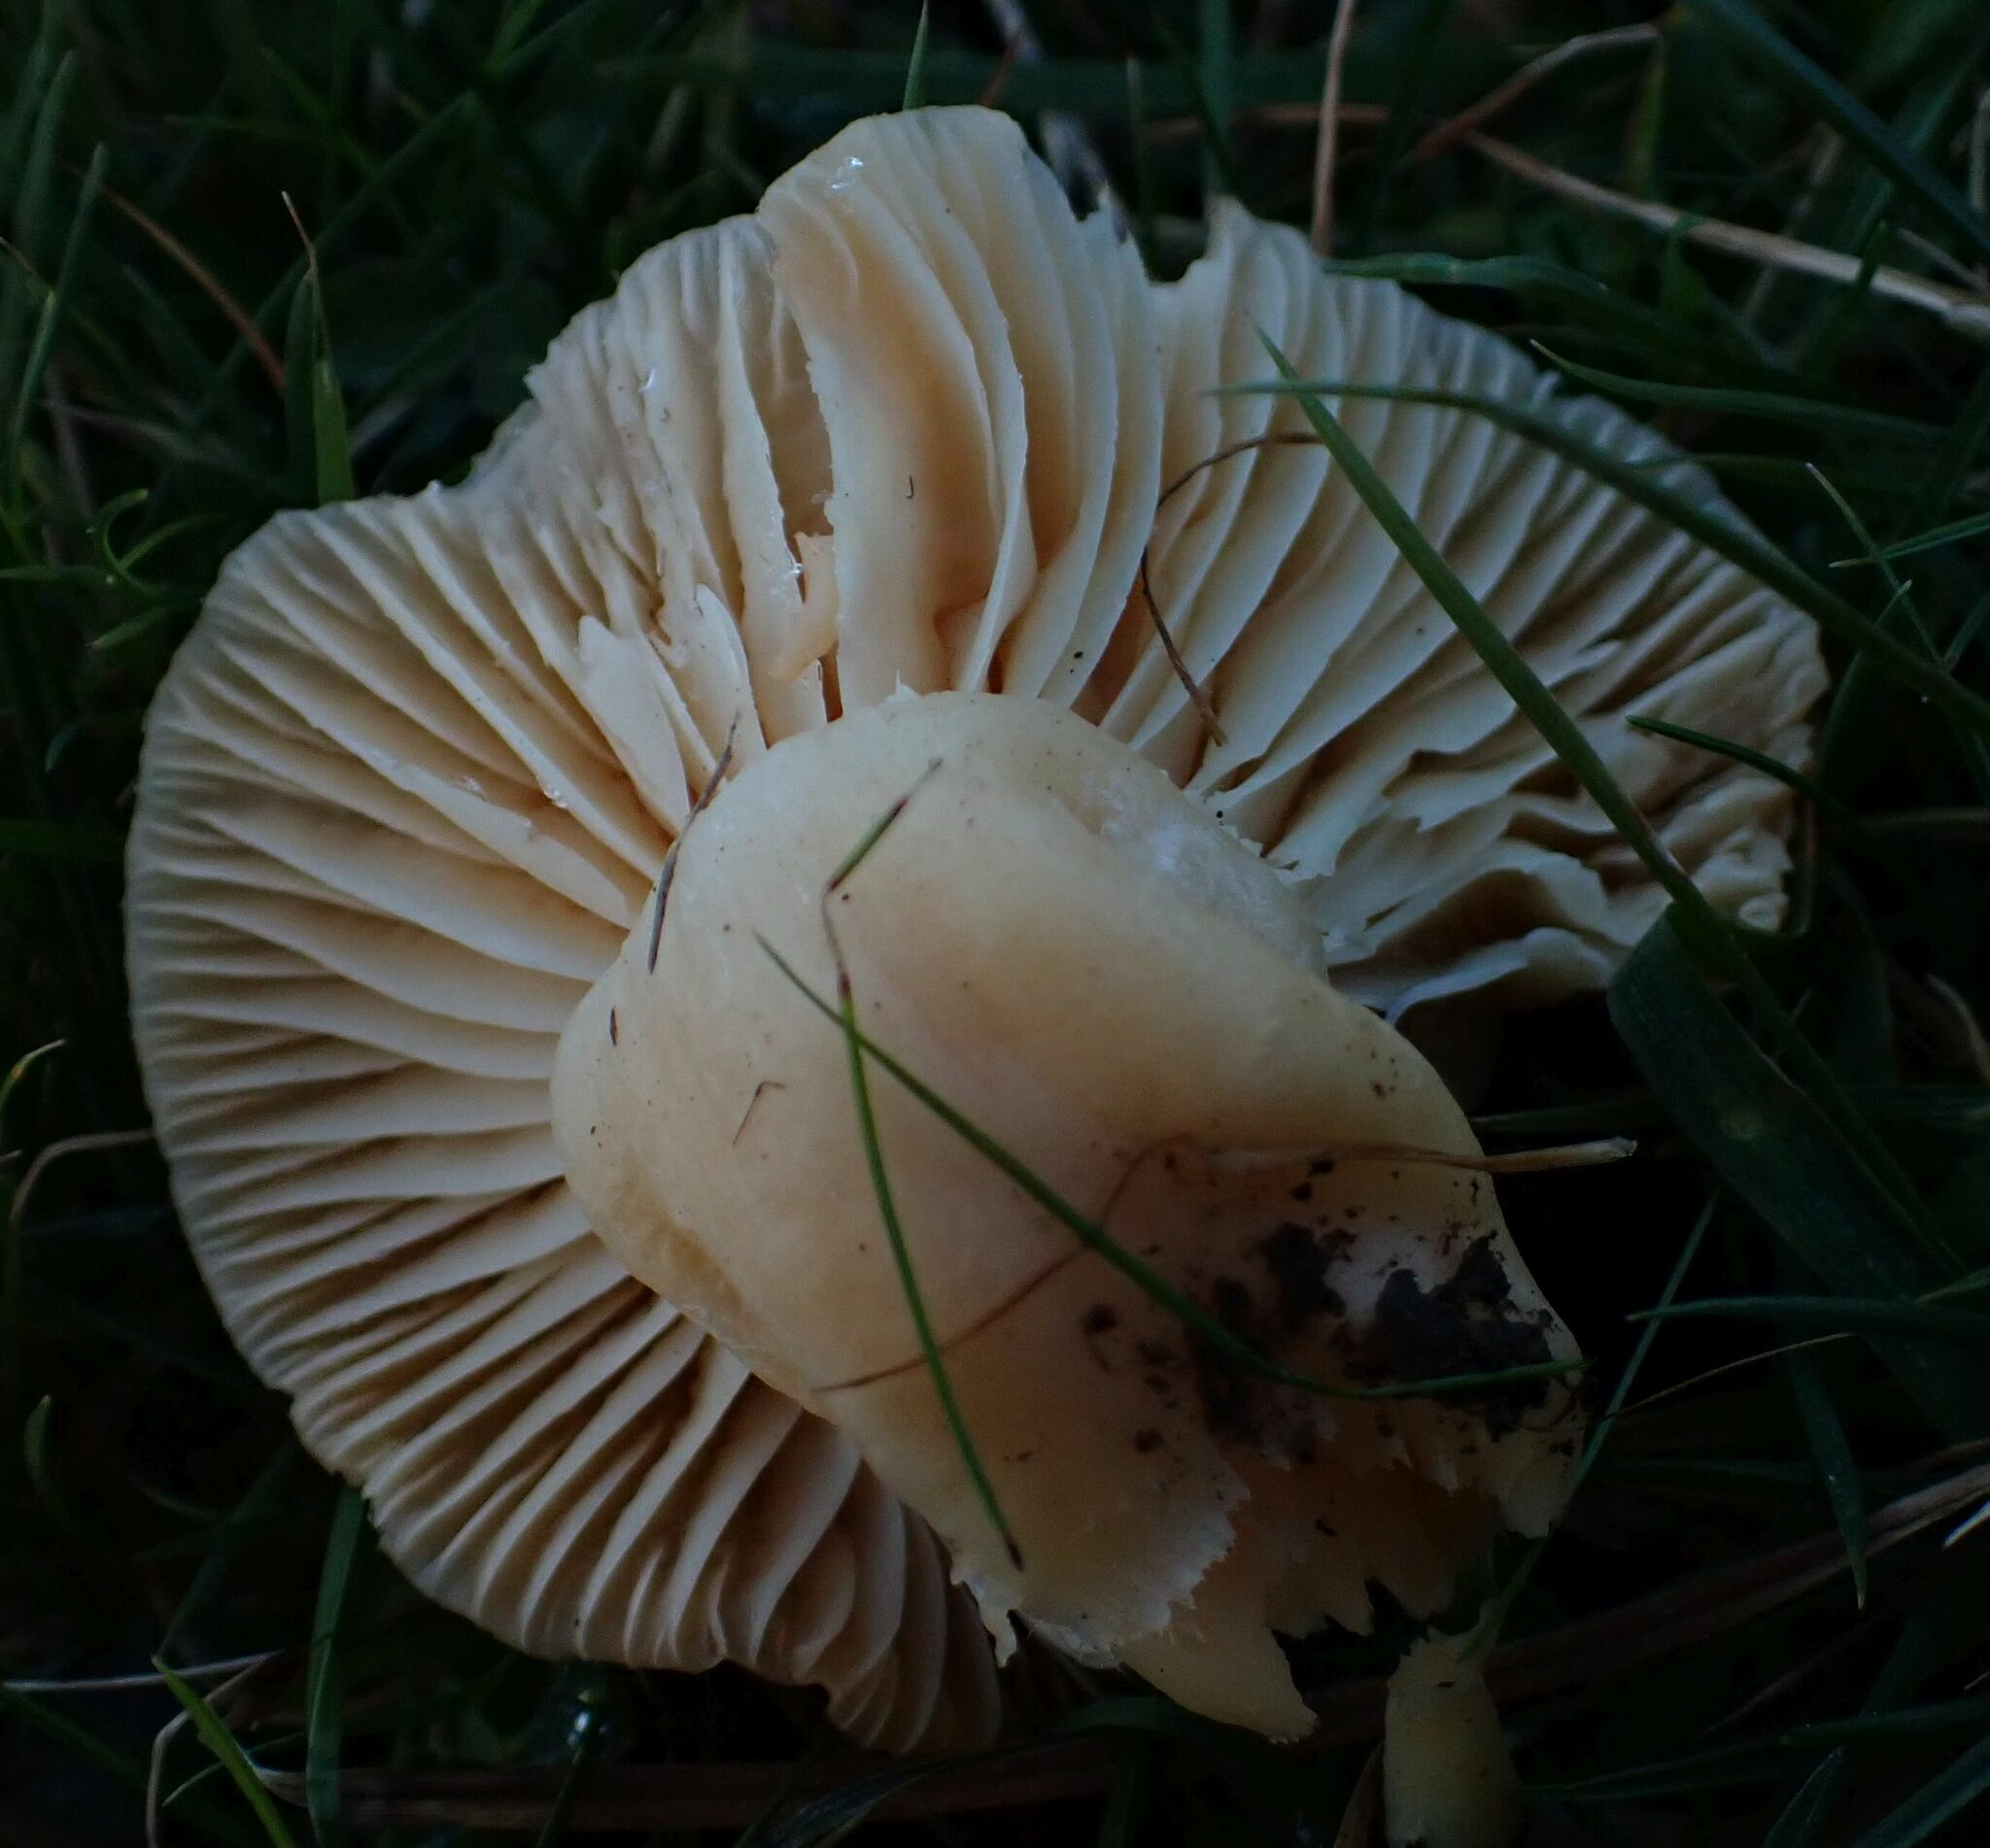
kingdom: Fungi
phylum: Basidiomycota
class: Agaricomycetes
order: Agaricales
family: Hygrophoraceae
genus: Cuphophyllus
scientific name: Cuphophyllus pratensis
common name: Meadow waxcap
